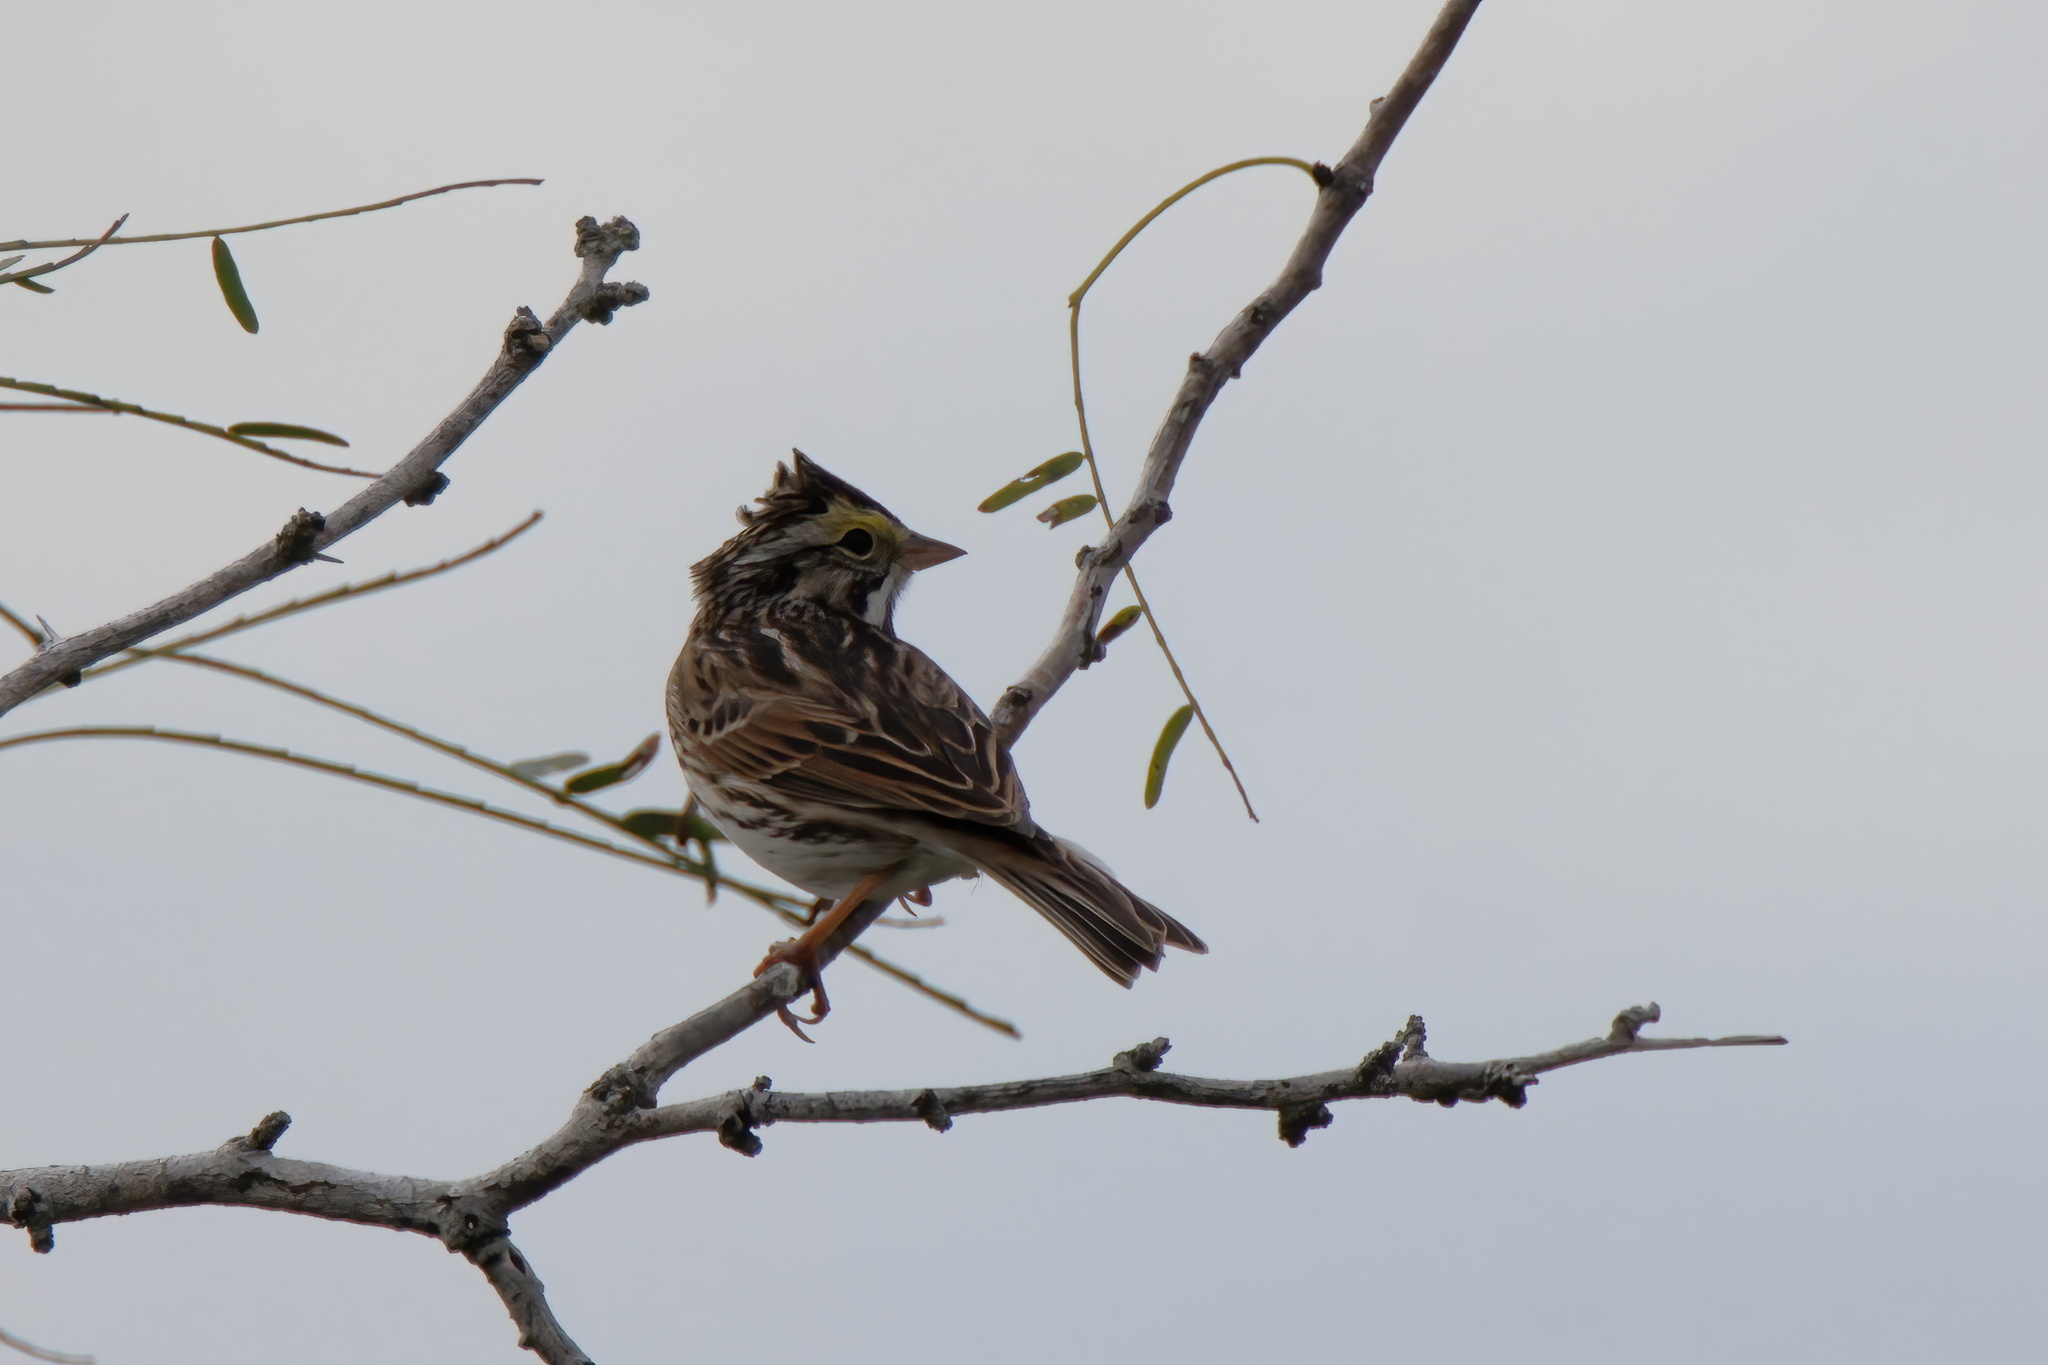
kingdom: Animalia
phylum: Chordata
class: Aves
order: Passeriformes
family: Passerellidae
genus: Passerculus
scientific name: Passerculus sandwichensis
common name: Savannah sparrow
